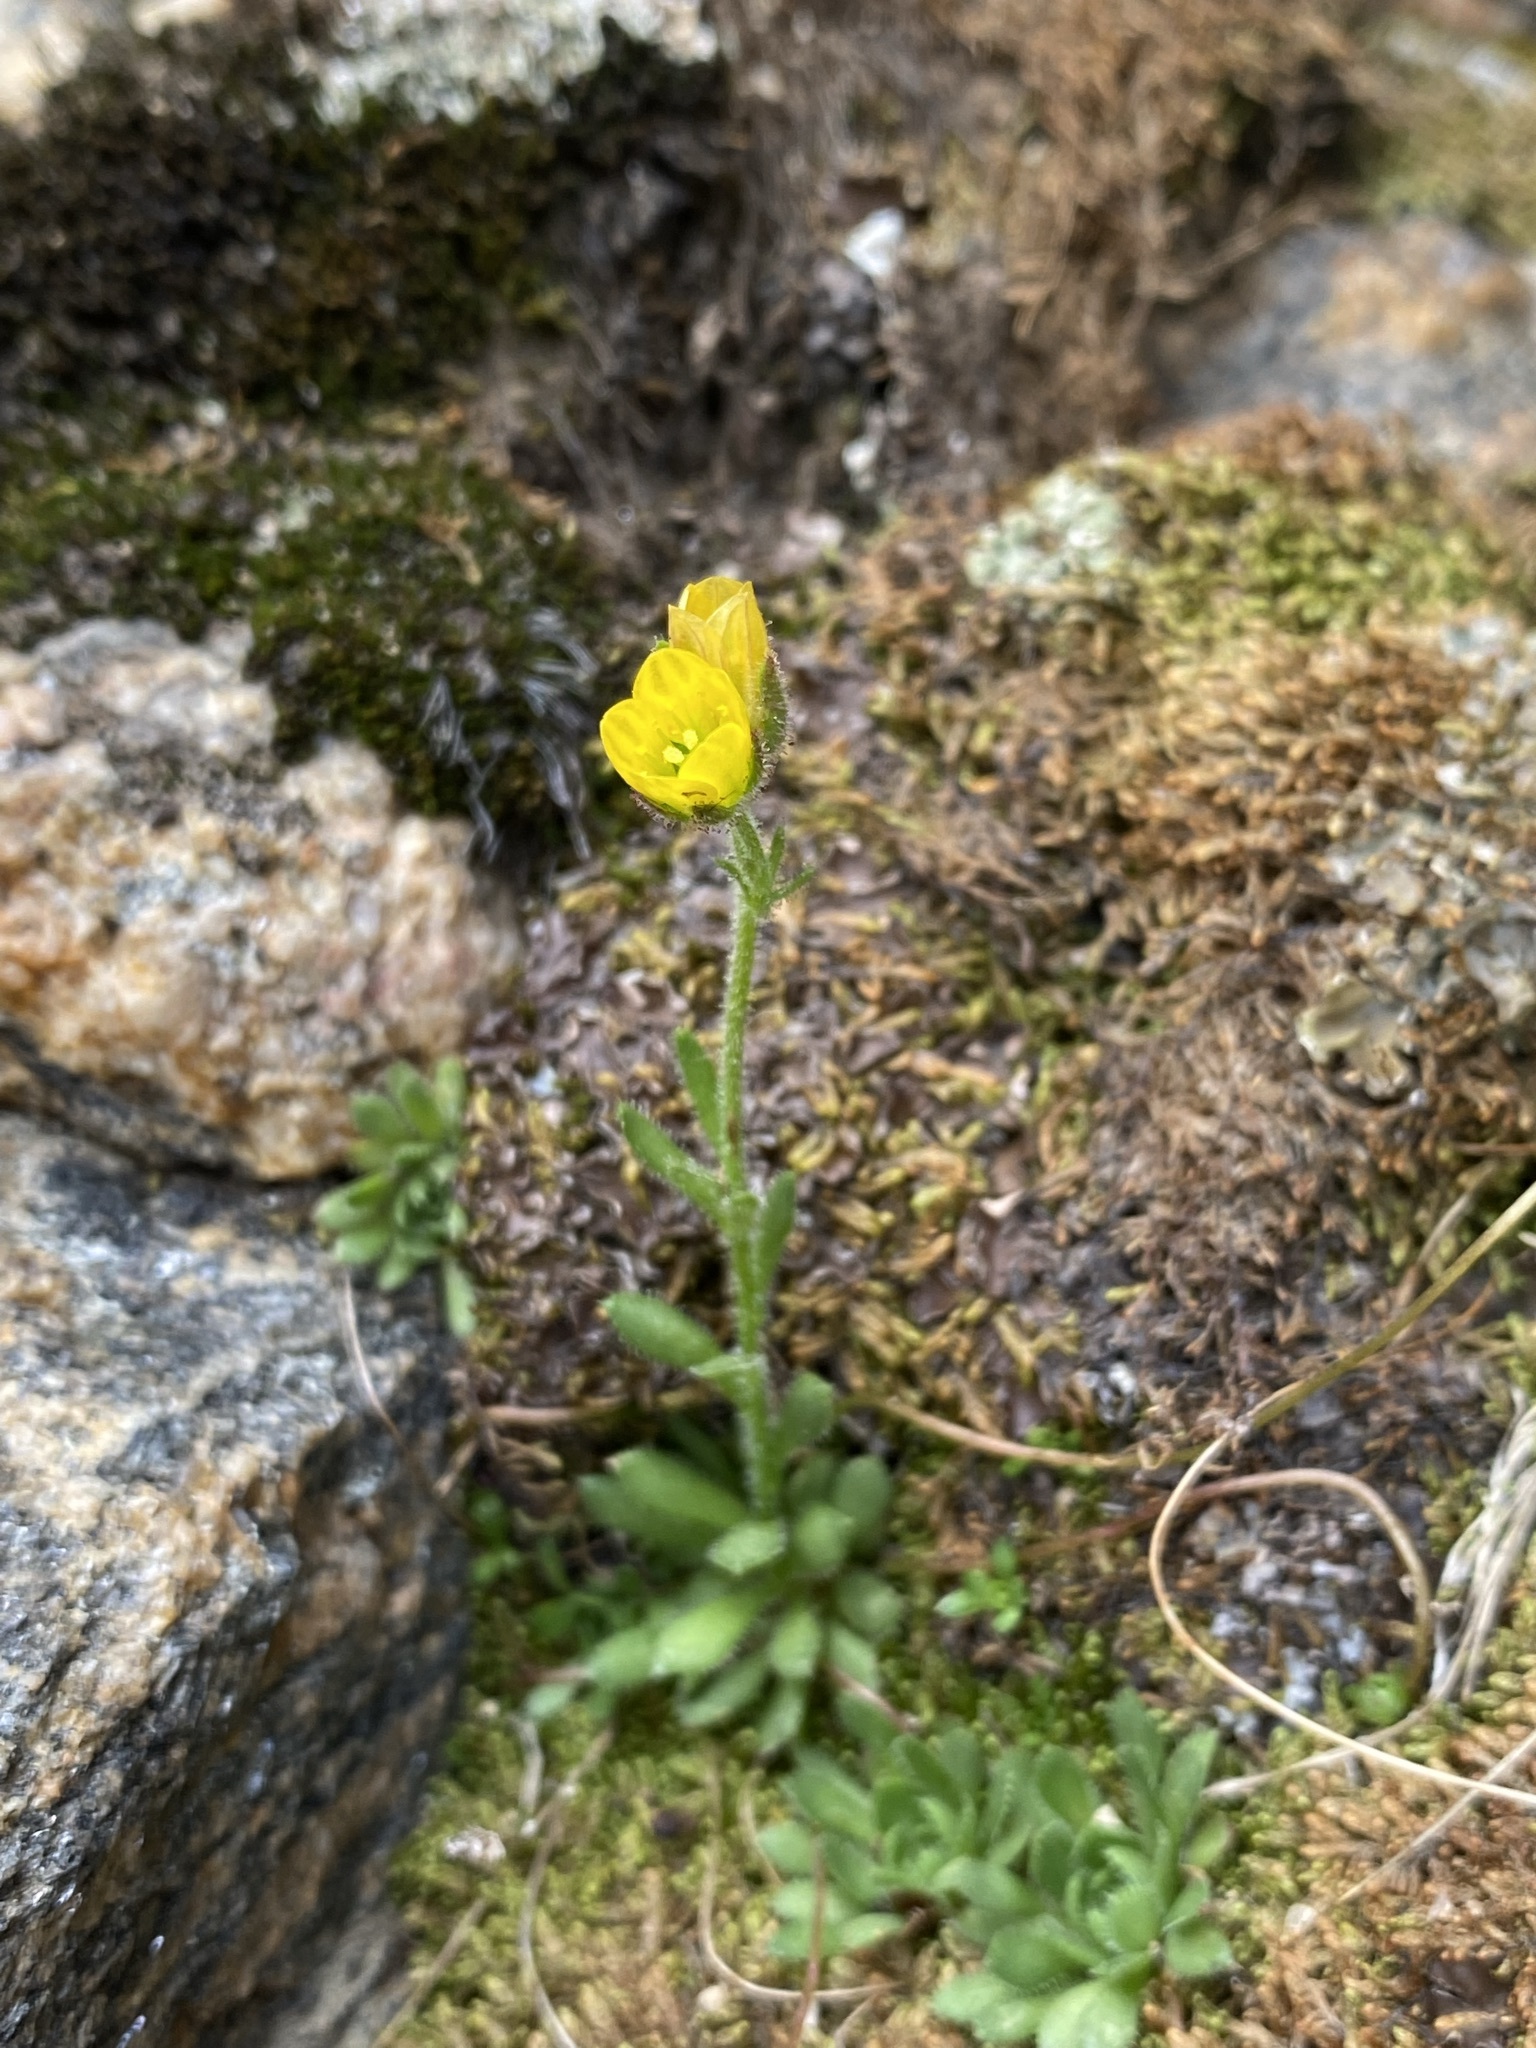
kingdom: Plantae
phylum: Tracheophyta
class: Magnoliopsida
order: Saxifragales
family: Saxifragaceae
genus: Saxifraga
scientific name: Saxifraga flagellaris
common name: Spider saxifrage
